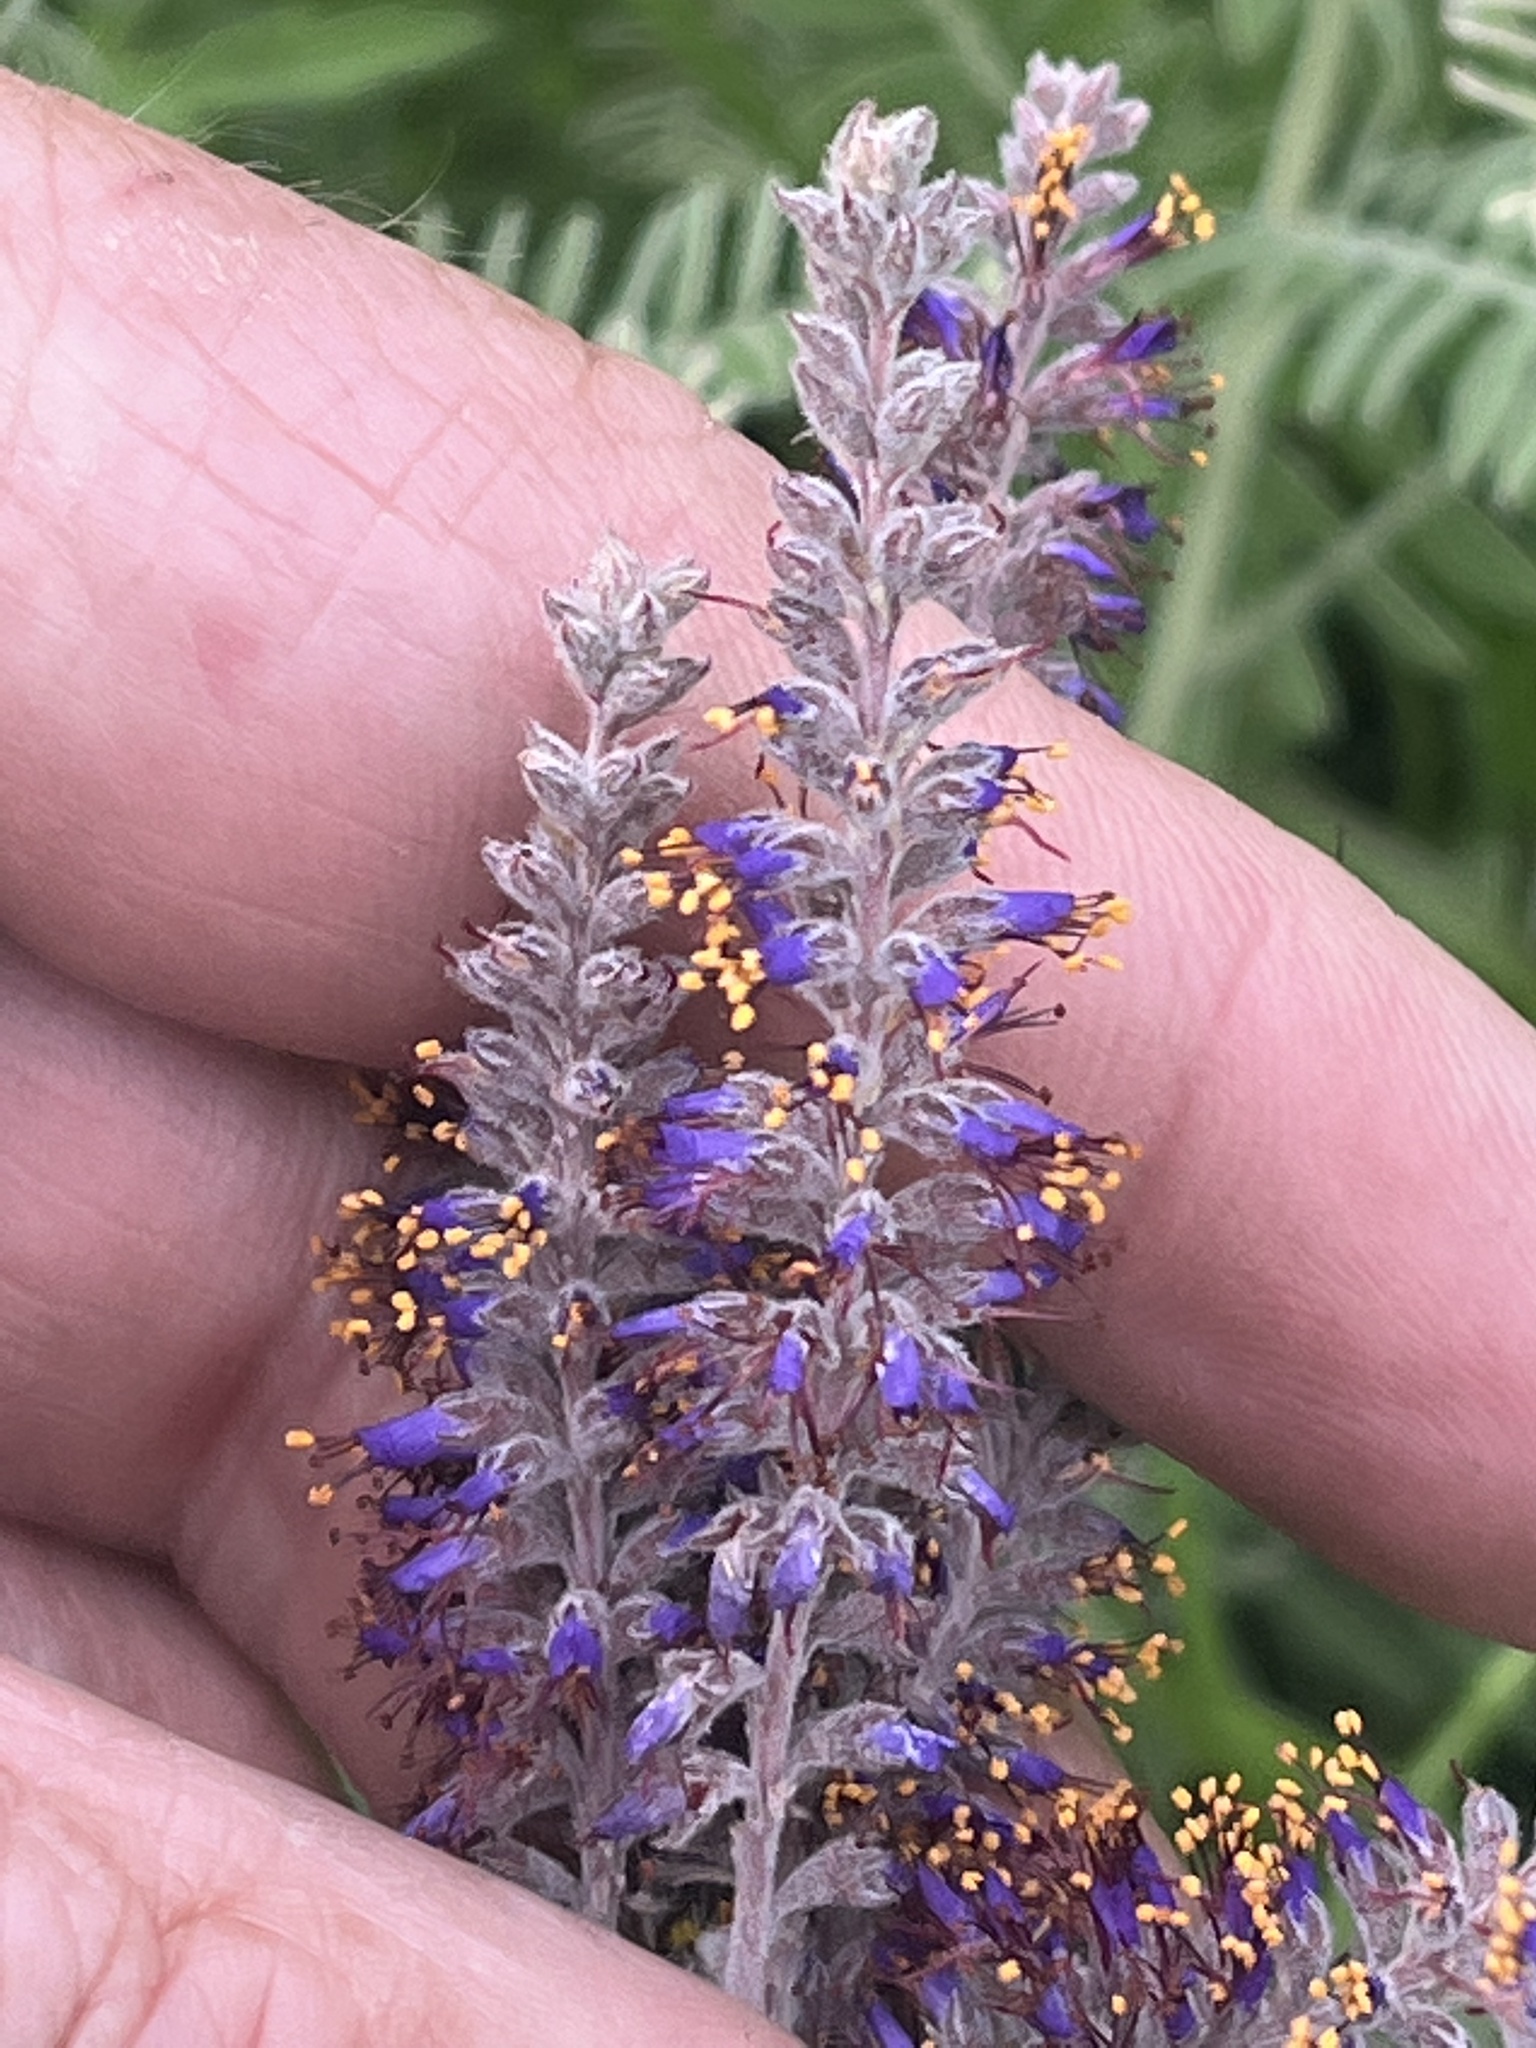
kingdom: Plantae
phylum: Tracheophyta
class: Magnoliopsida
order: Fabales
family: Fabaceae
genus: Amorpha
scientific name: Amorpha canescens
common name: Leadplant
